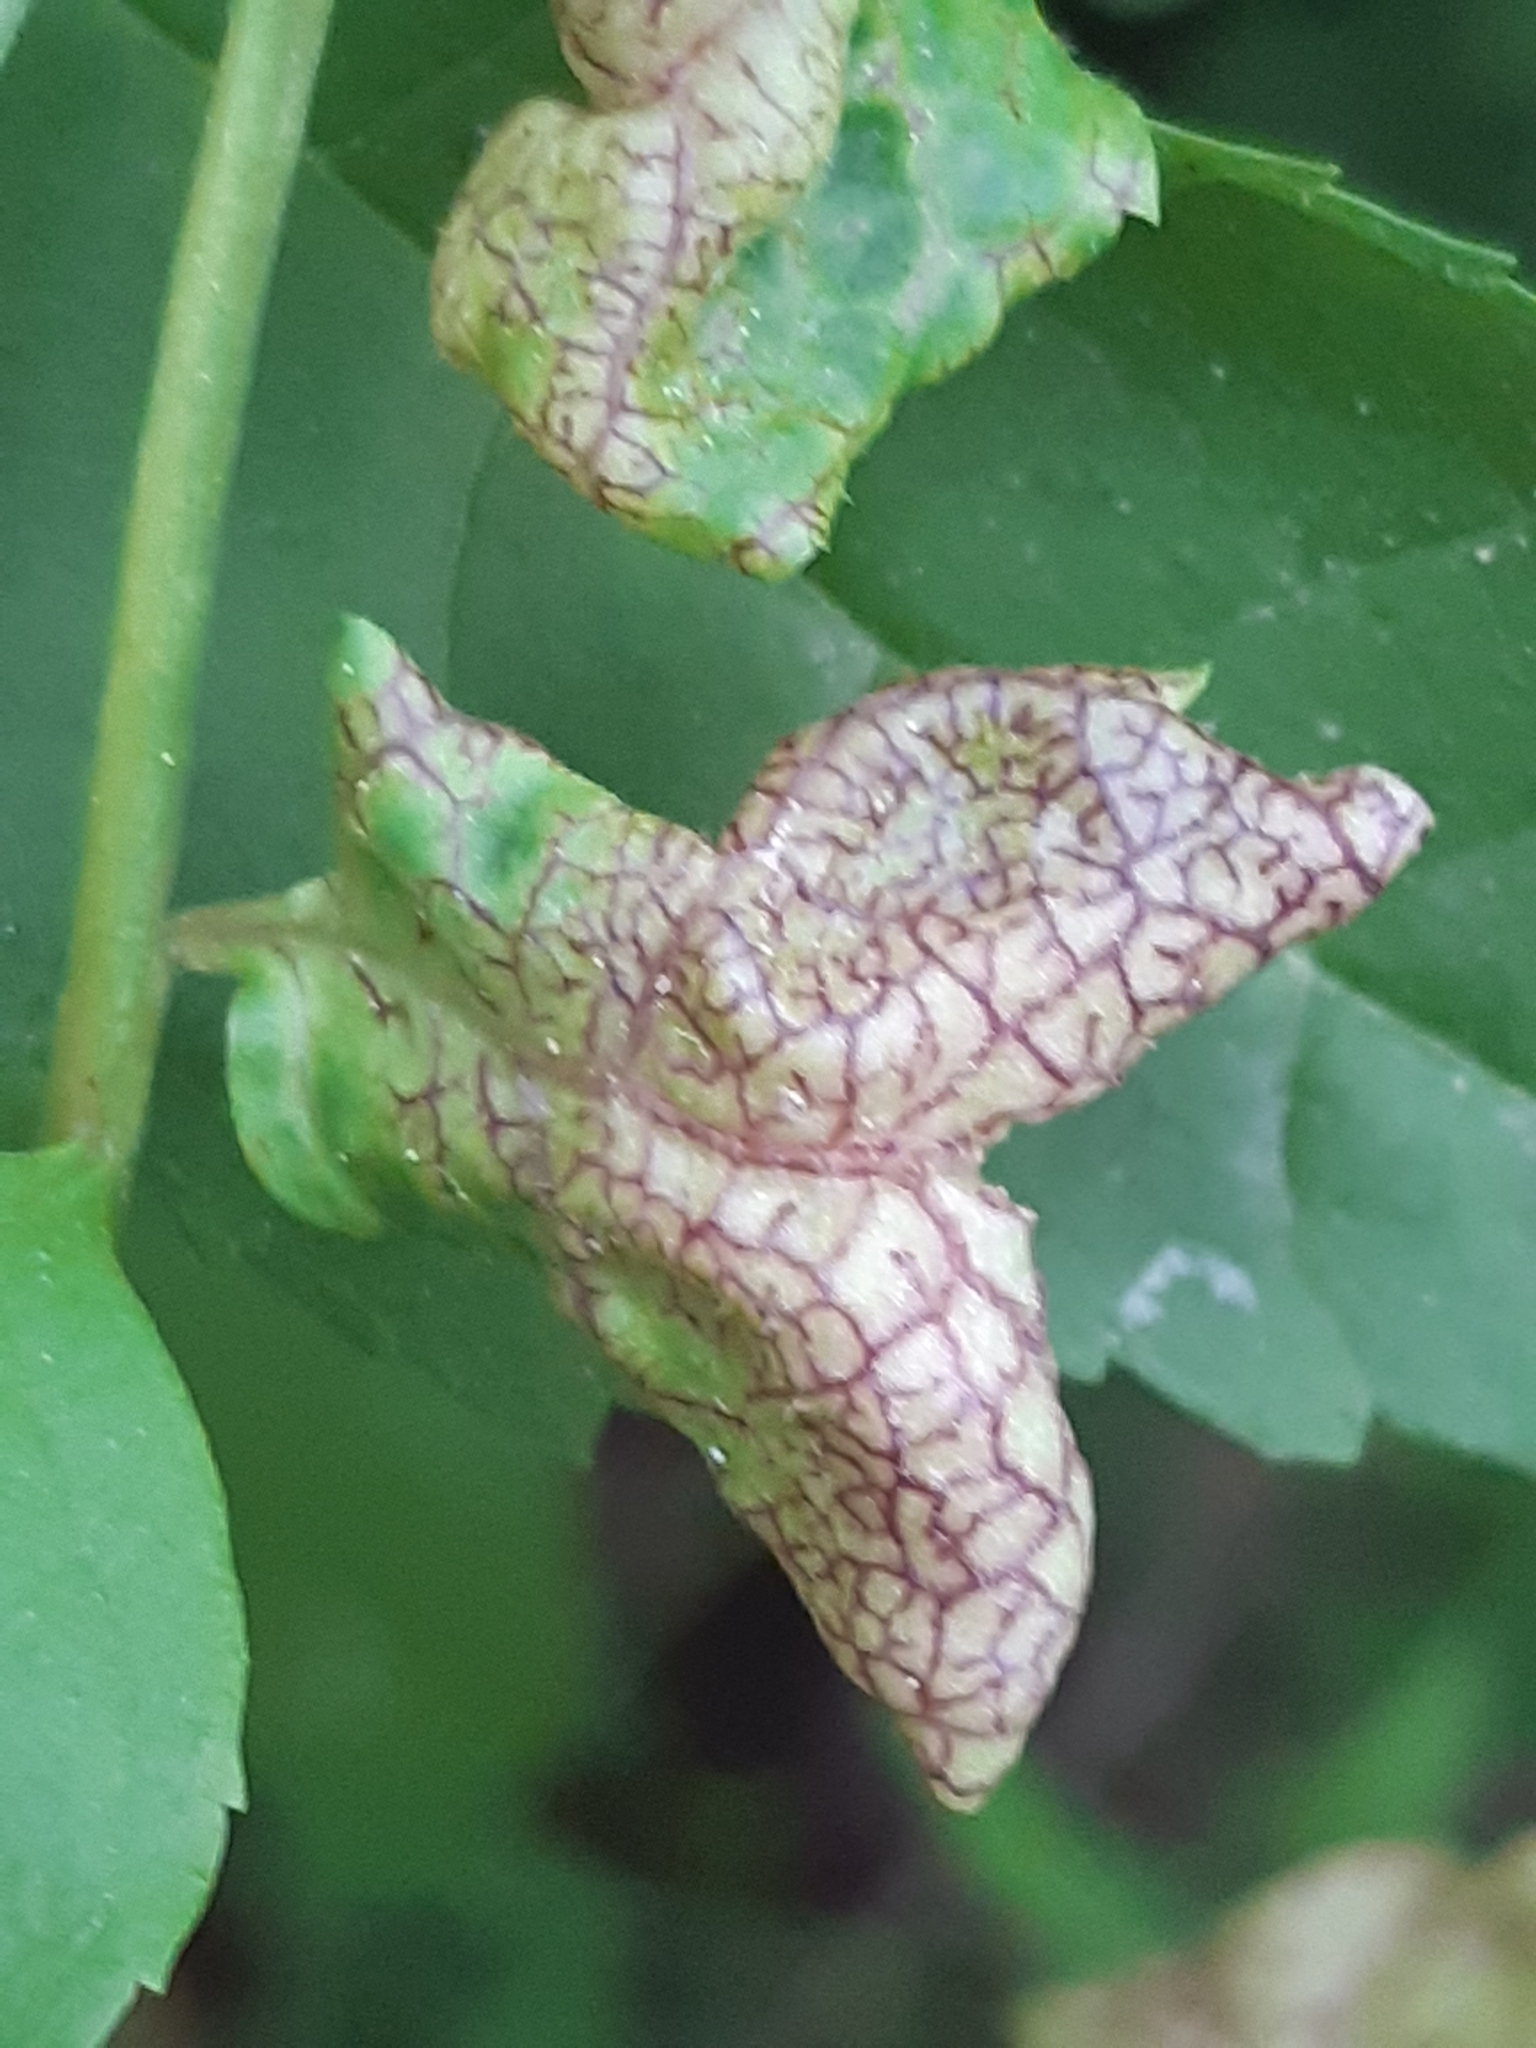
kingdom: Animalia
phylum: Arthropoda
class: Insecta
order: Hemiptera
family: Liviidae
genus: Psyllopsis
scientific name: Psyllopsis fraxini
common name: Jumping plant louse
